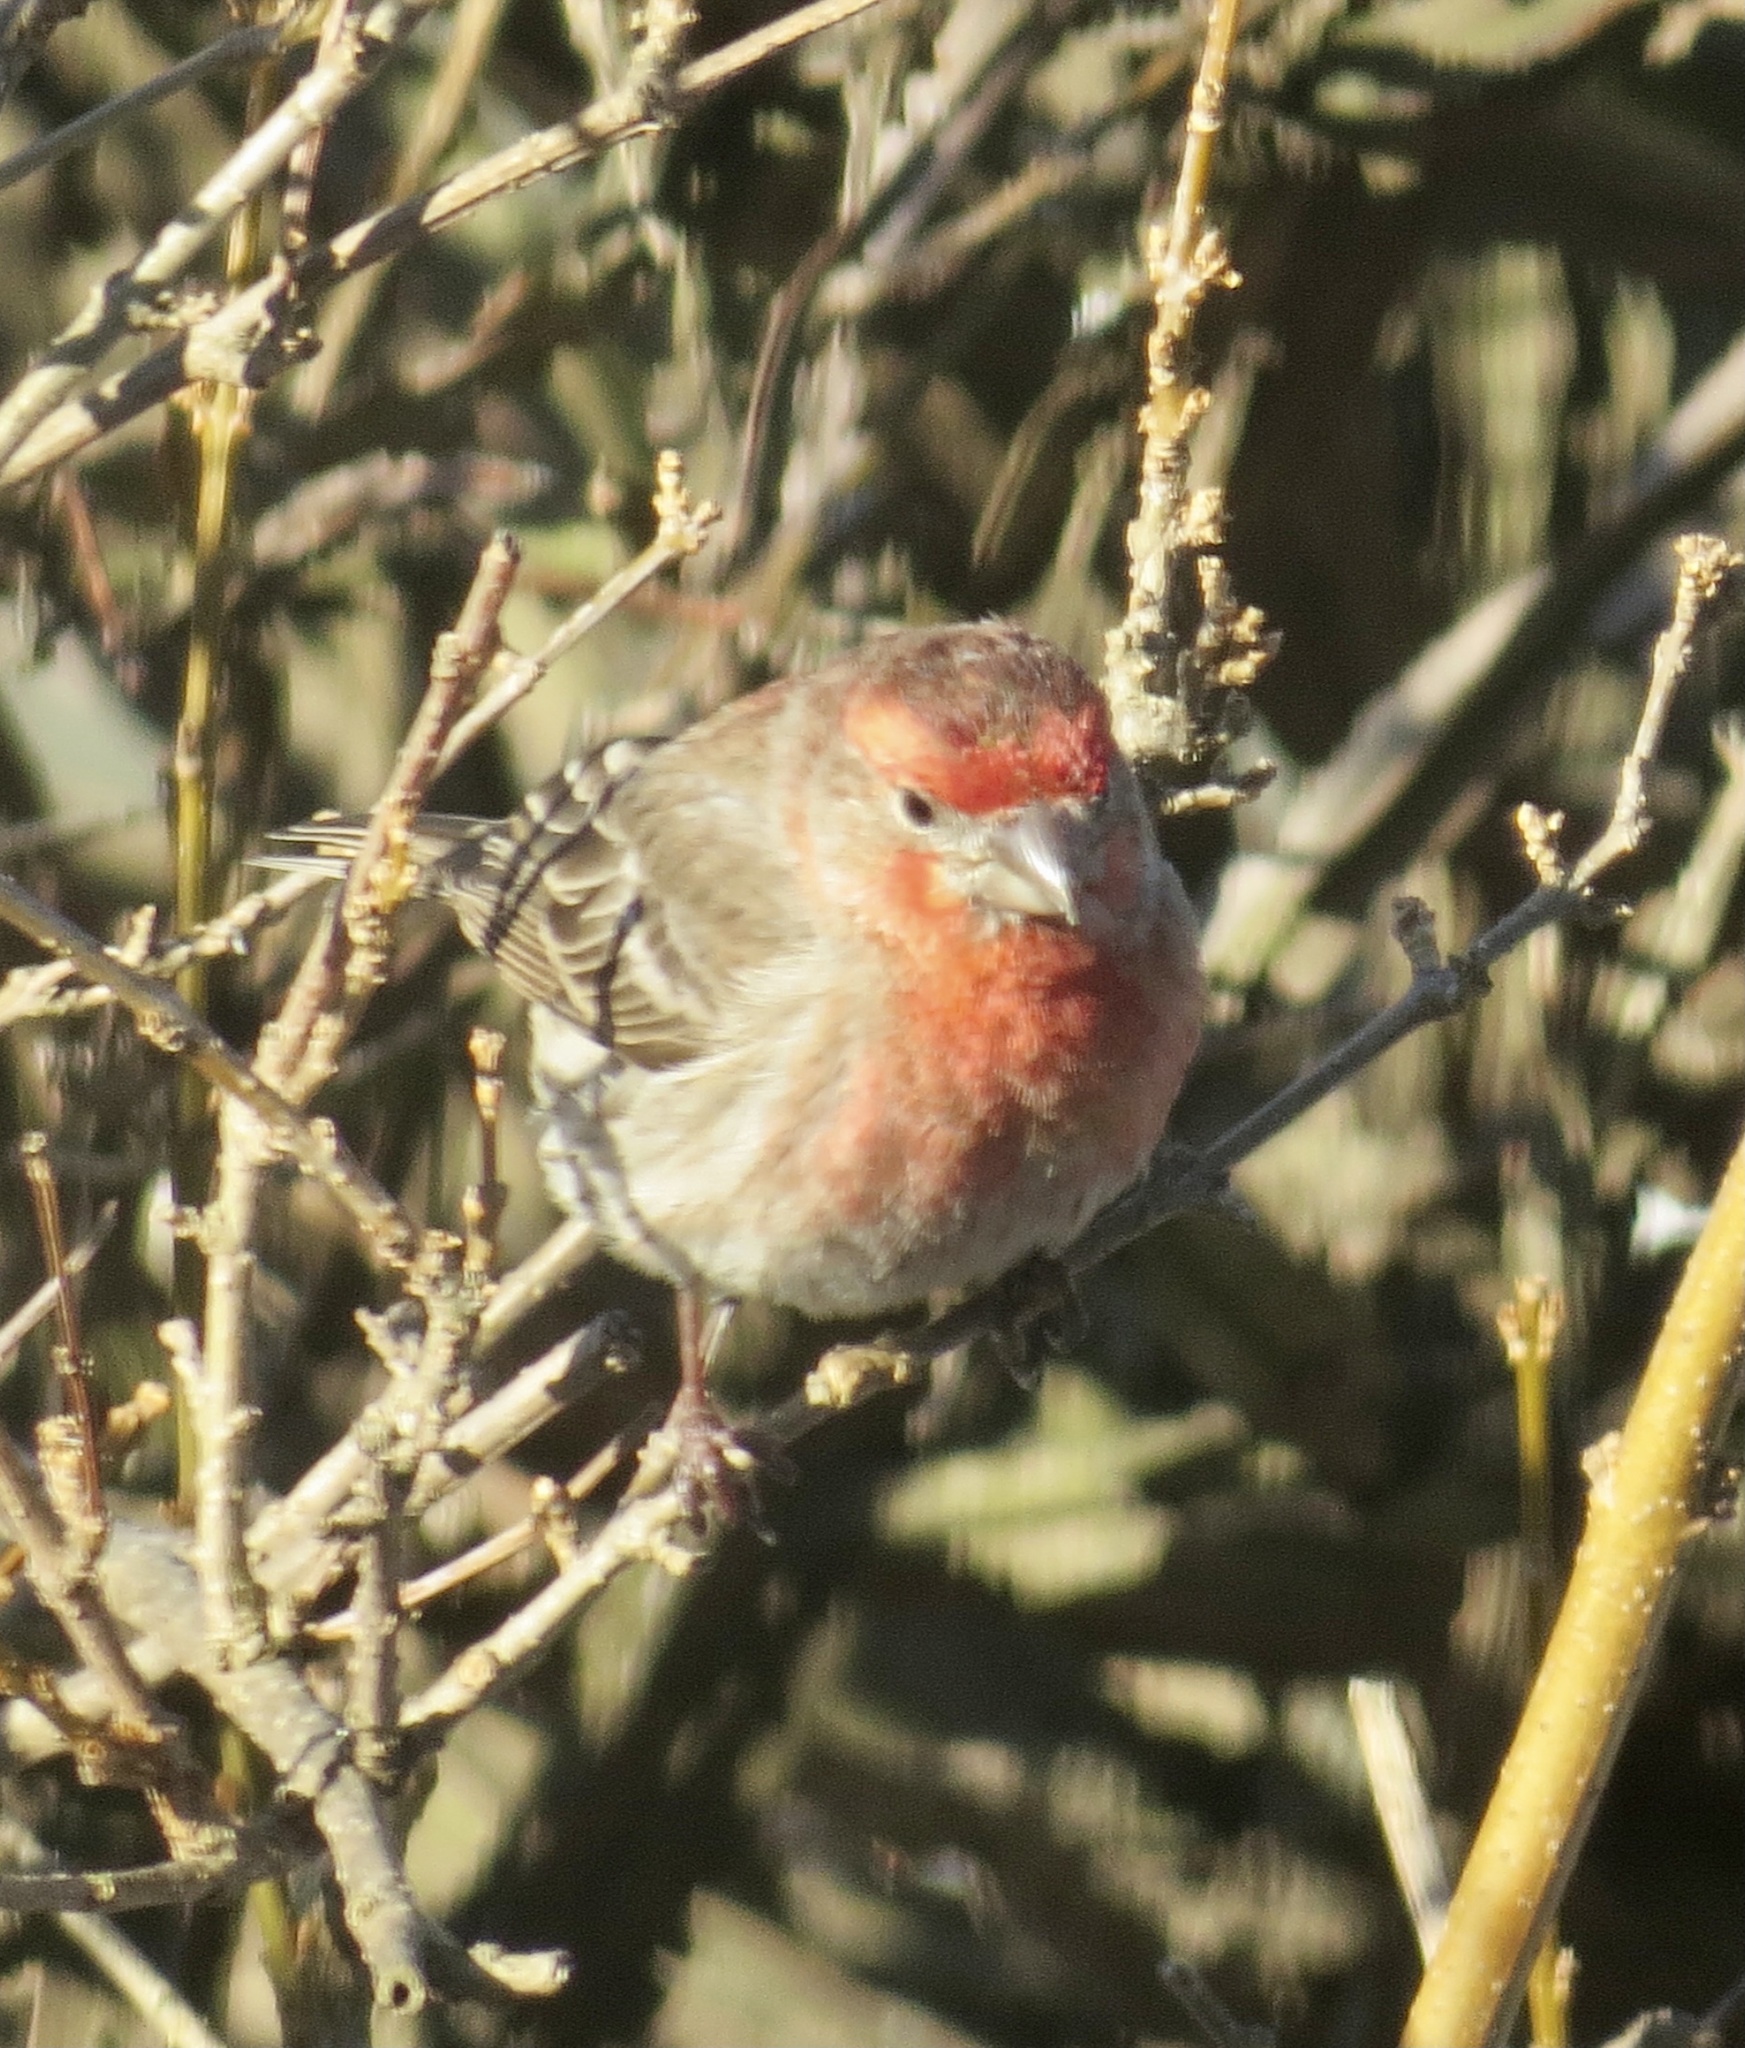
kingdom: Animalia
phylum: Chordata
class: Aves
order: Passeriformes
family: Fringillidae
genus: Haemorhous
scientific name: Haemorhous mexicanus
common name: House finch
